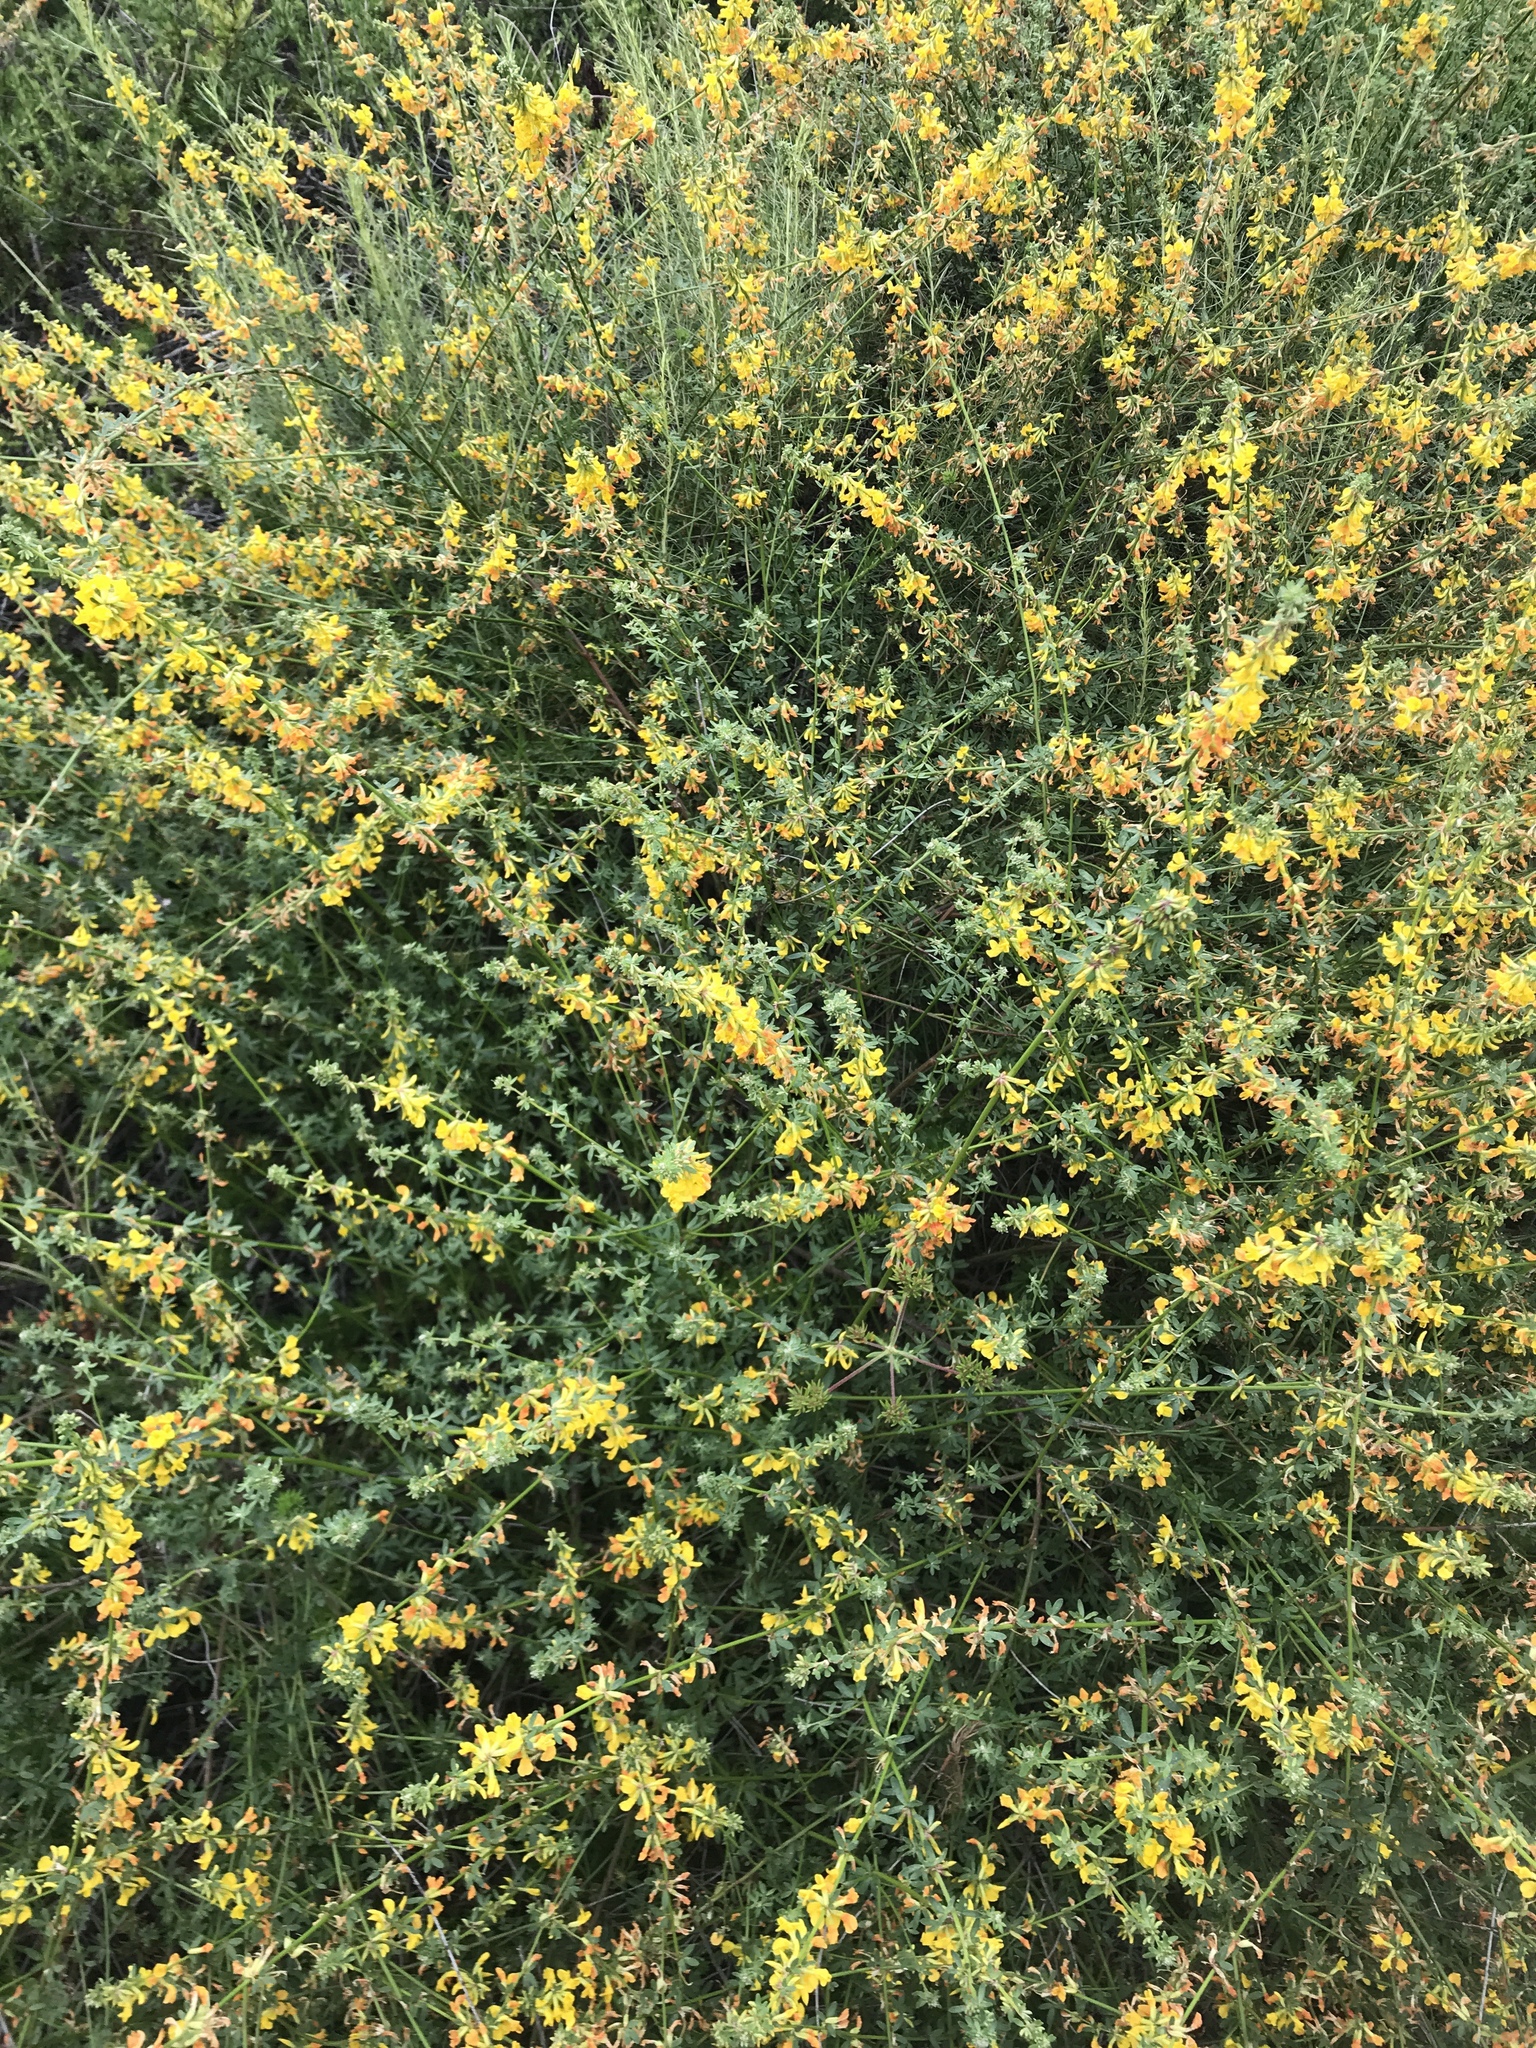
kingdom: Plantae
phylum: Tracheophyta
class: Magnoliopsida
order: Fabales
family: Fabaceae
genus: Acmispon
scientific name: Acmispon glaber
